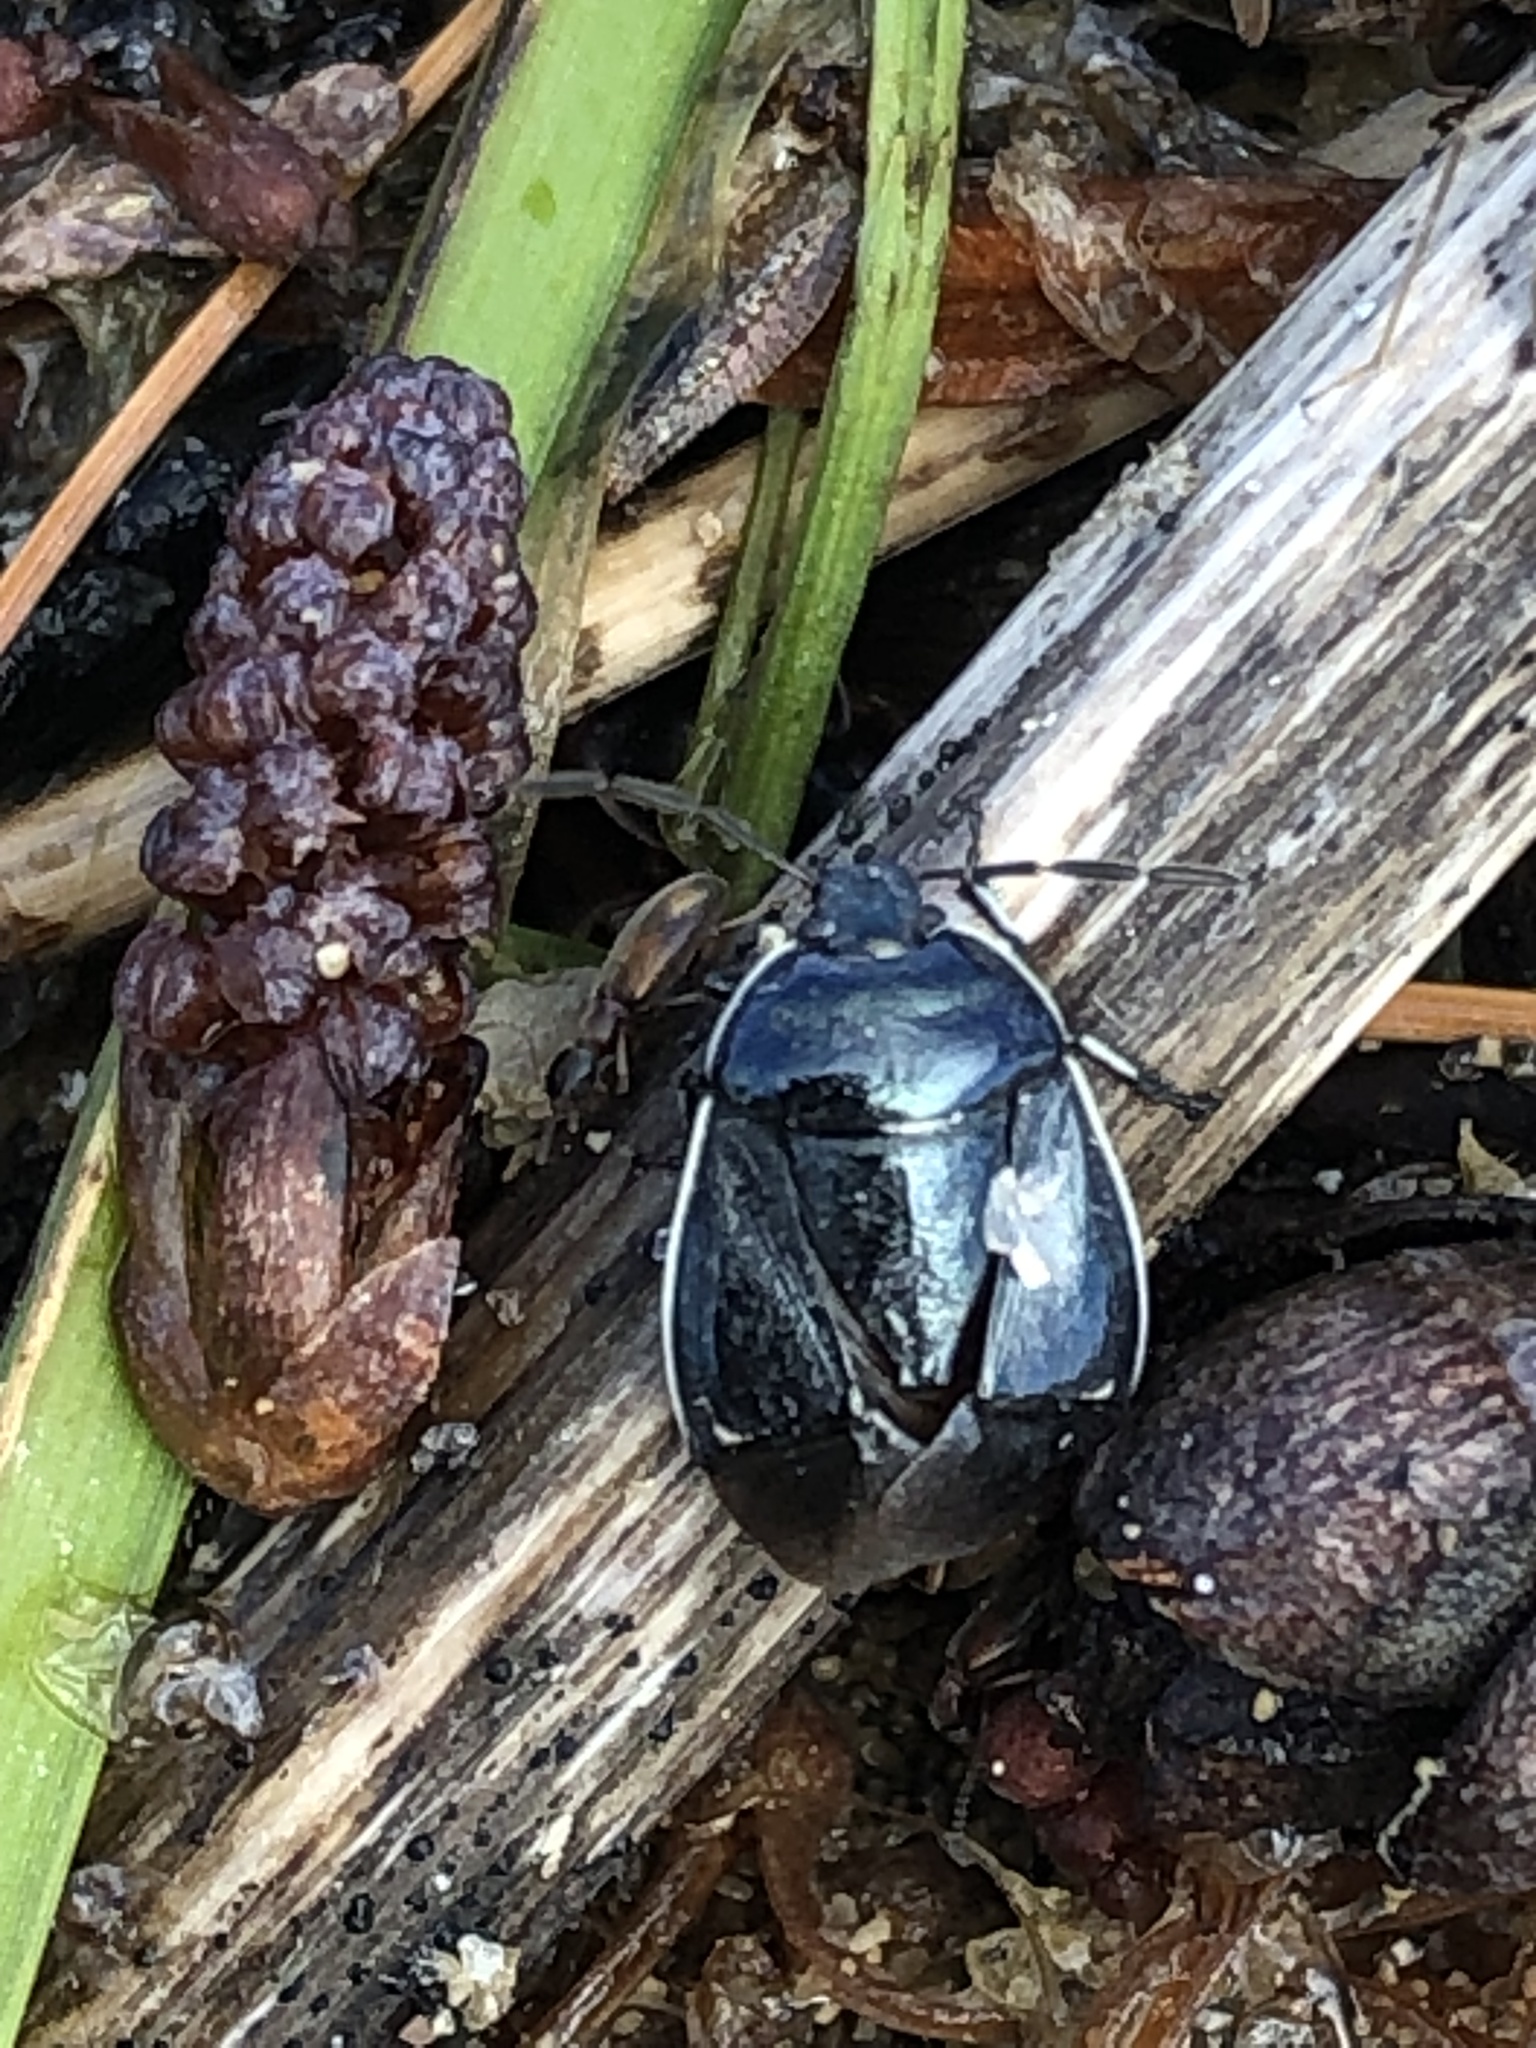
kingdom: Animalia
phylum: Arthropoda
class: Insecta
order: Hemiptera
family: Cydnidae
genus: Sehirus
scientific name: Sehirus cinctus
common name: White-margined burrower bug
